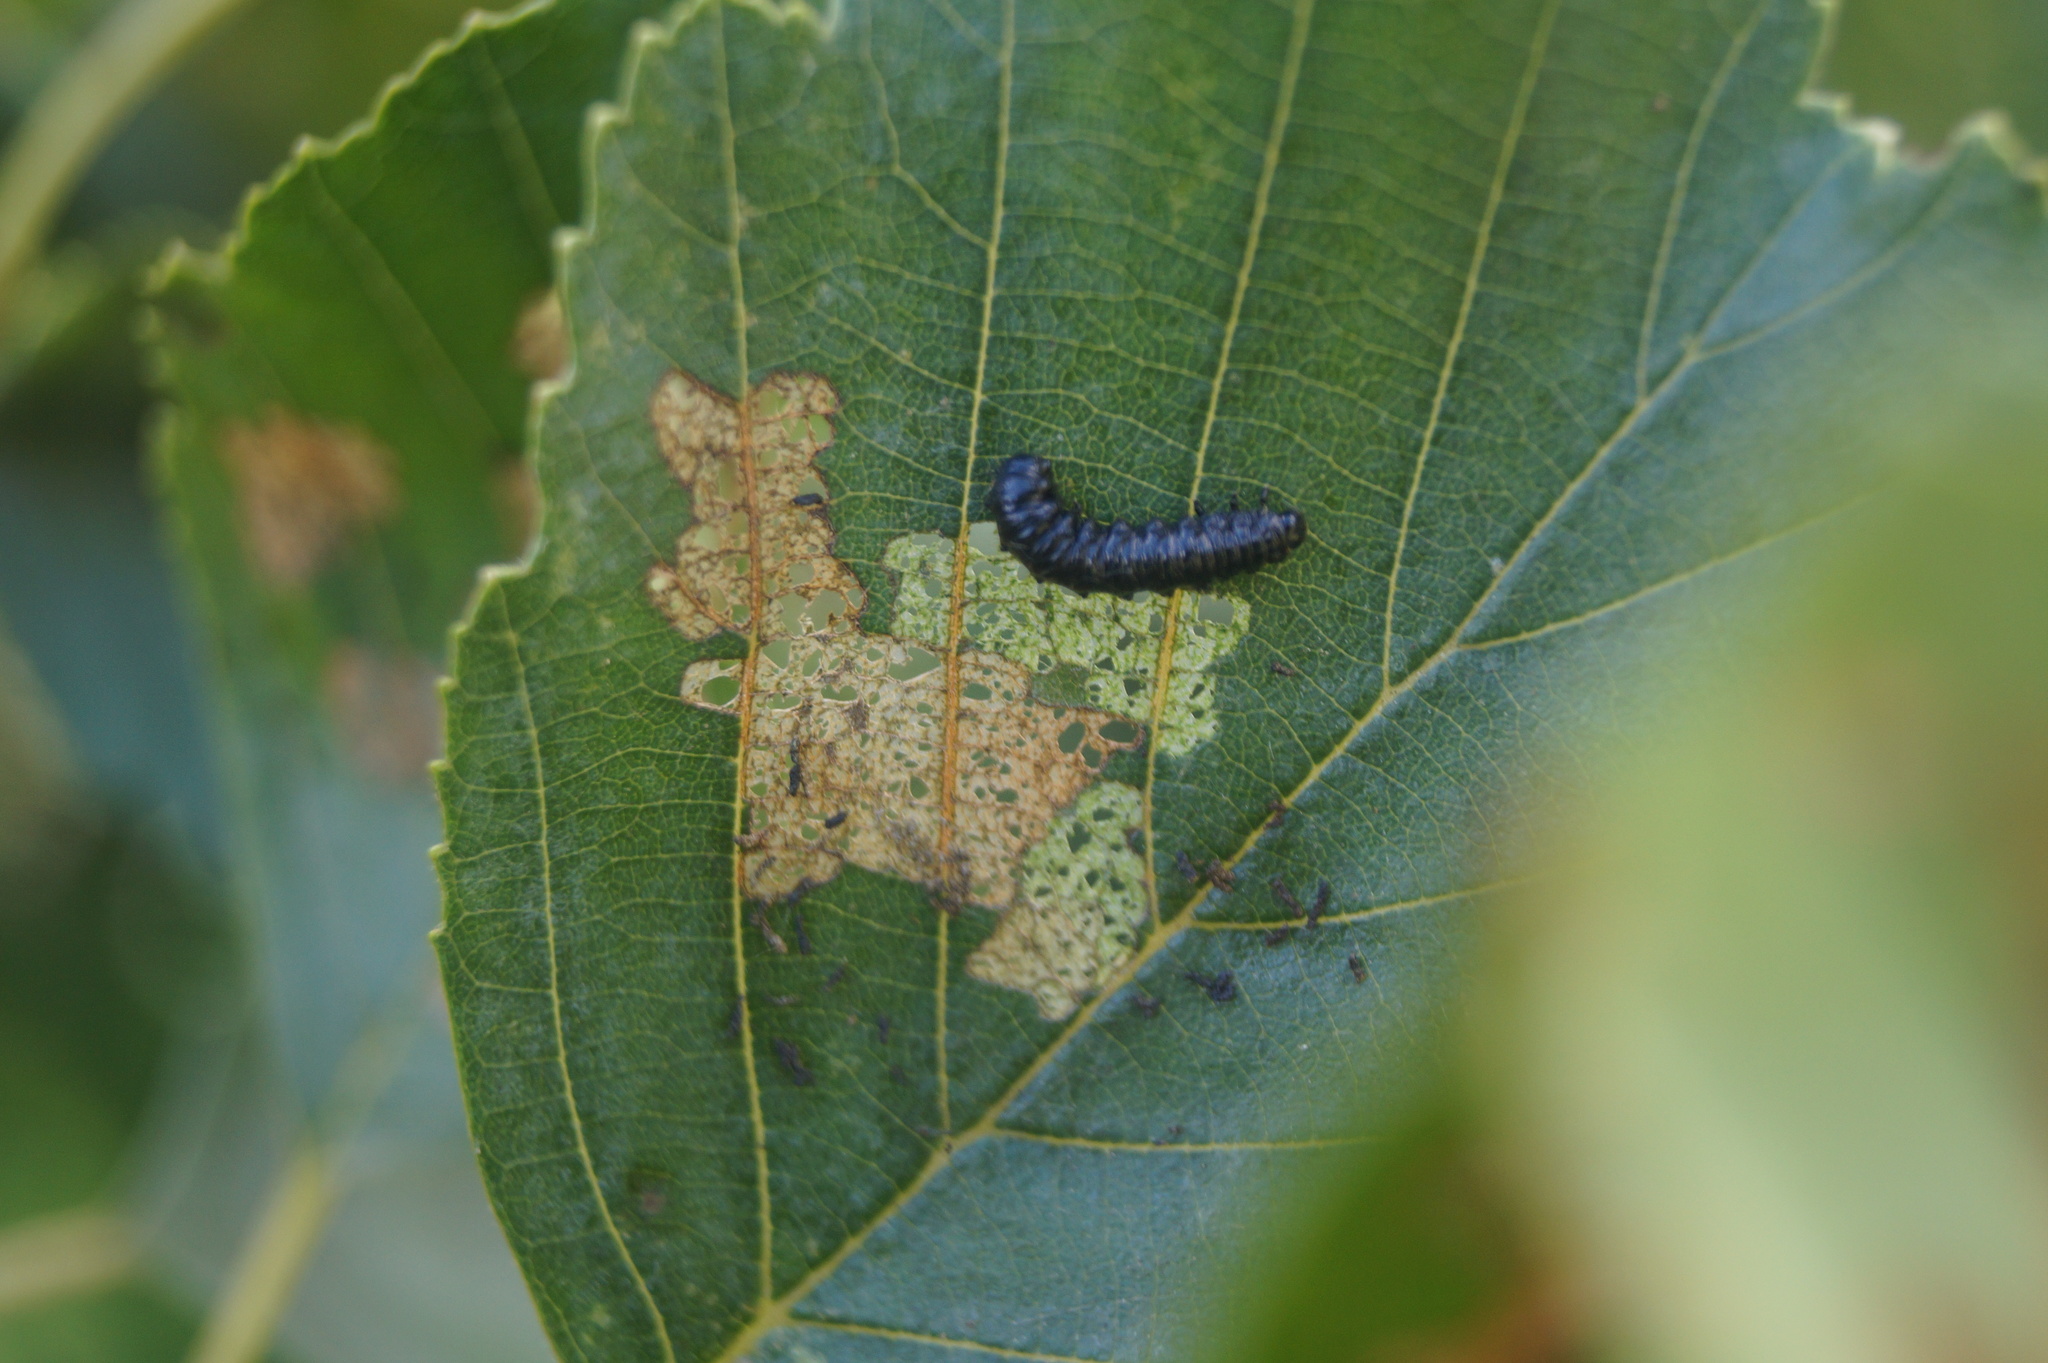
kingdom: Animalia
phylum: Arthropoda
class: Insecta
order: Coleoptera
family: Chrysomelidae
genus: Agelastica
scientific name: Agelastica alni
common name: Alder leaf beetle
